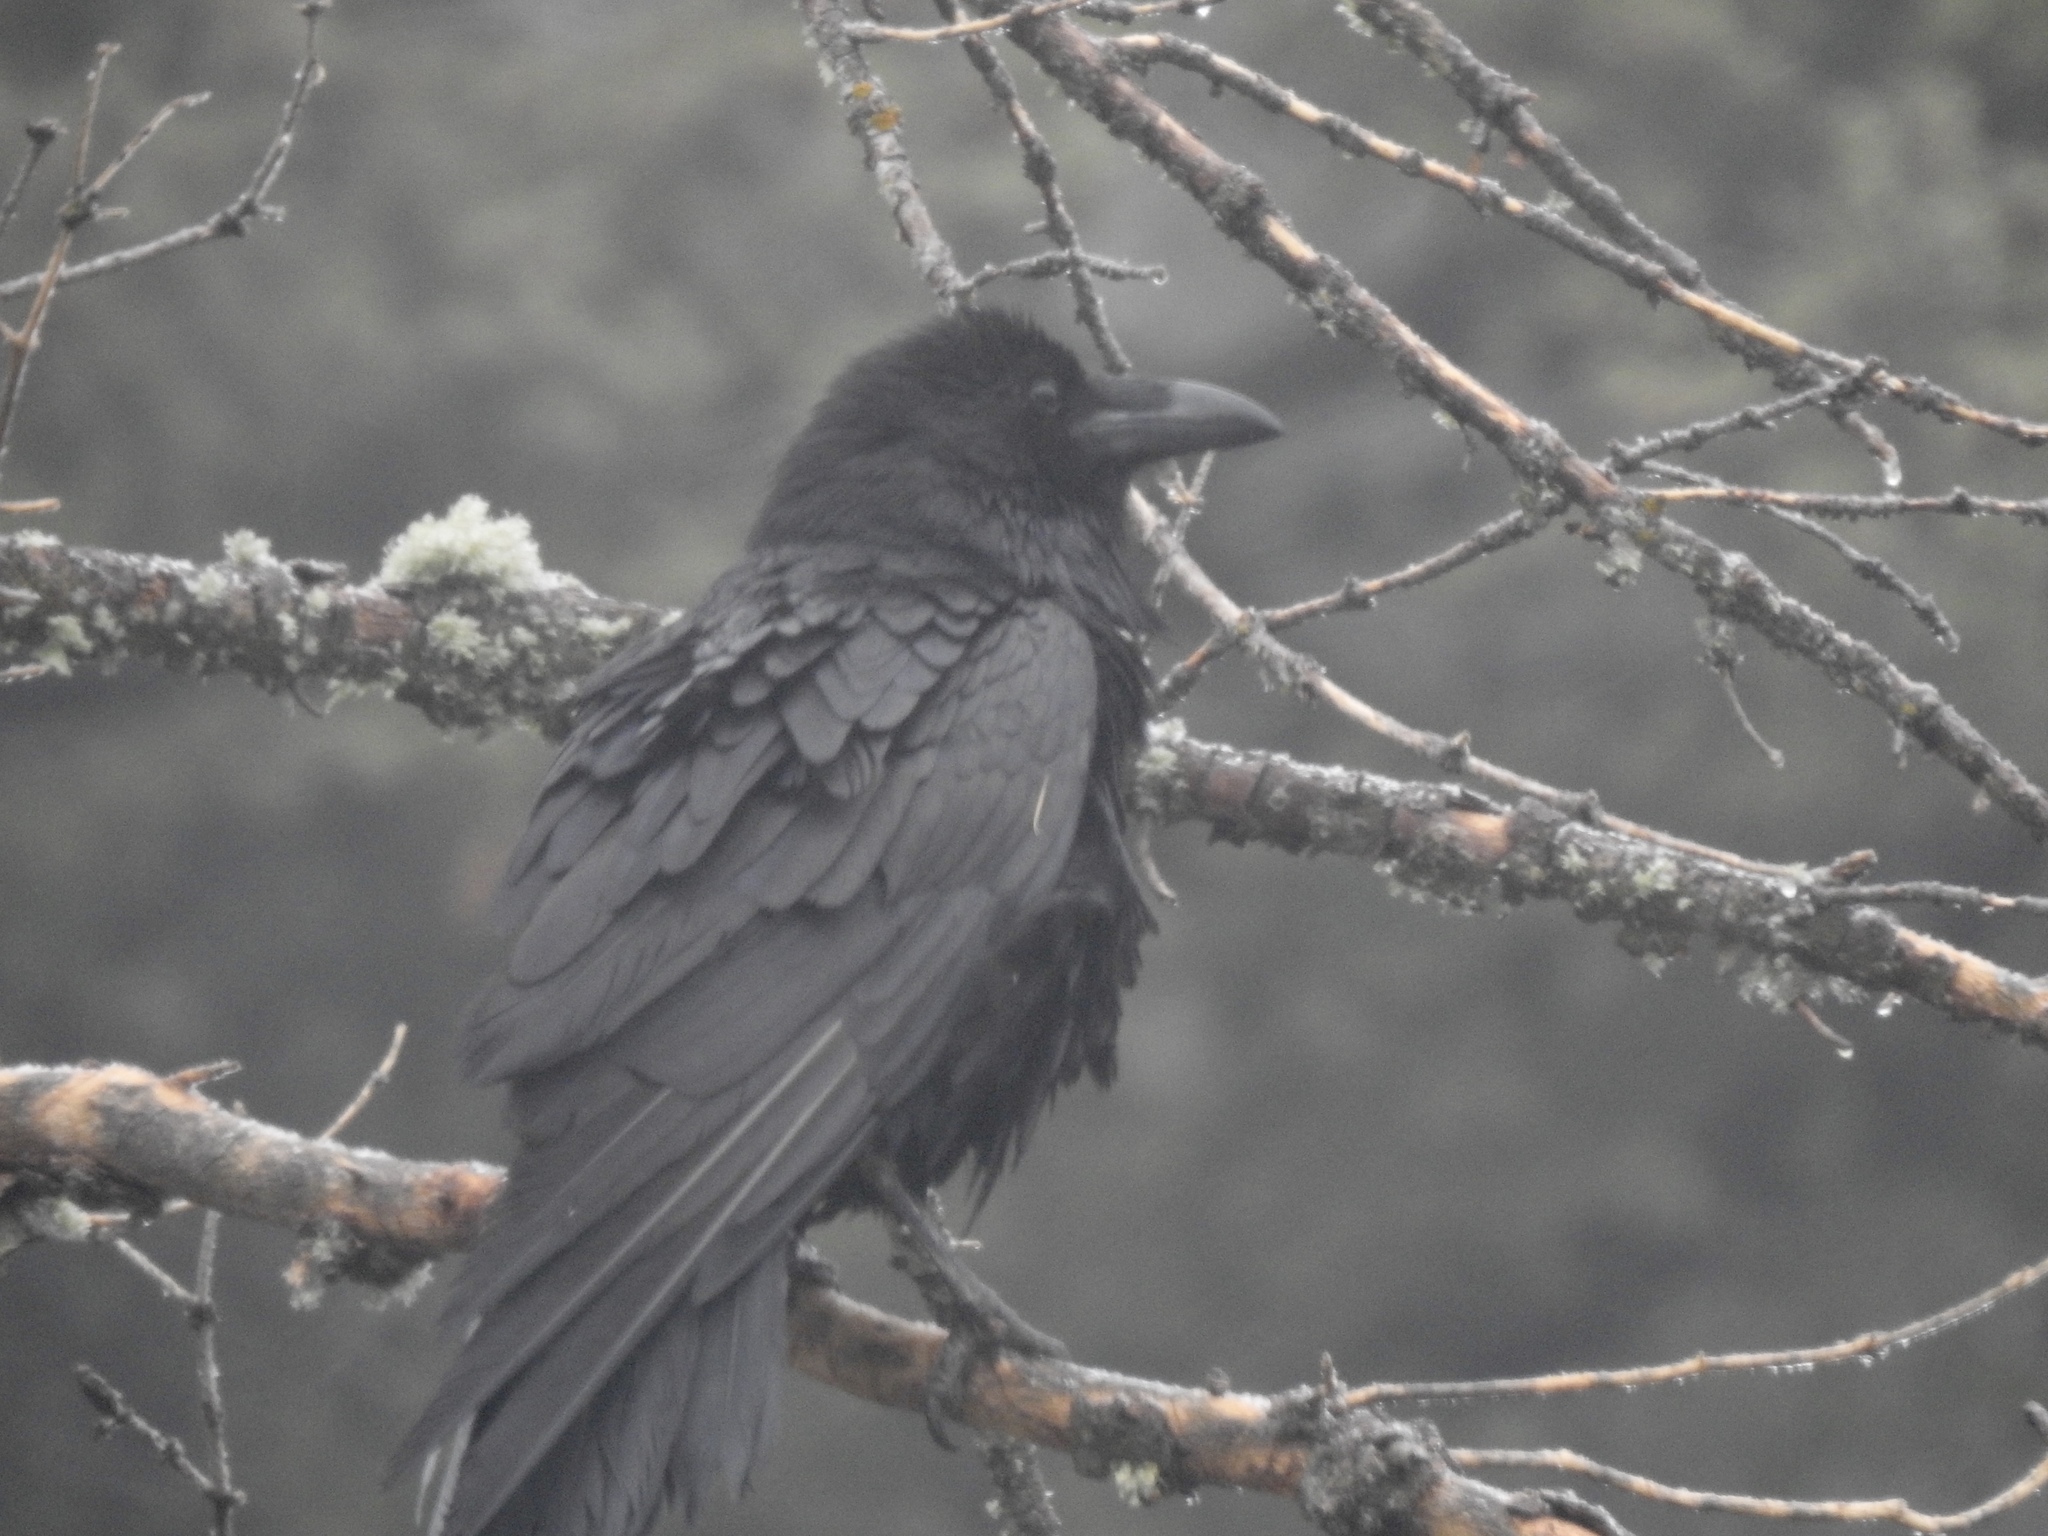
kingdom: Animalia
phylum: Chordata
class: Aves
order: Passeriformes
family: Corvidae
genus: Corvus
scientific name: Corvus corax
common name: Common raven
